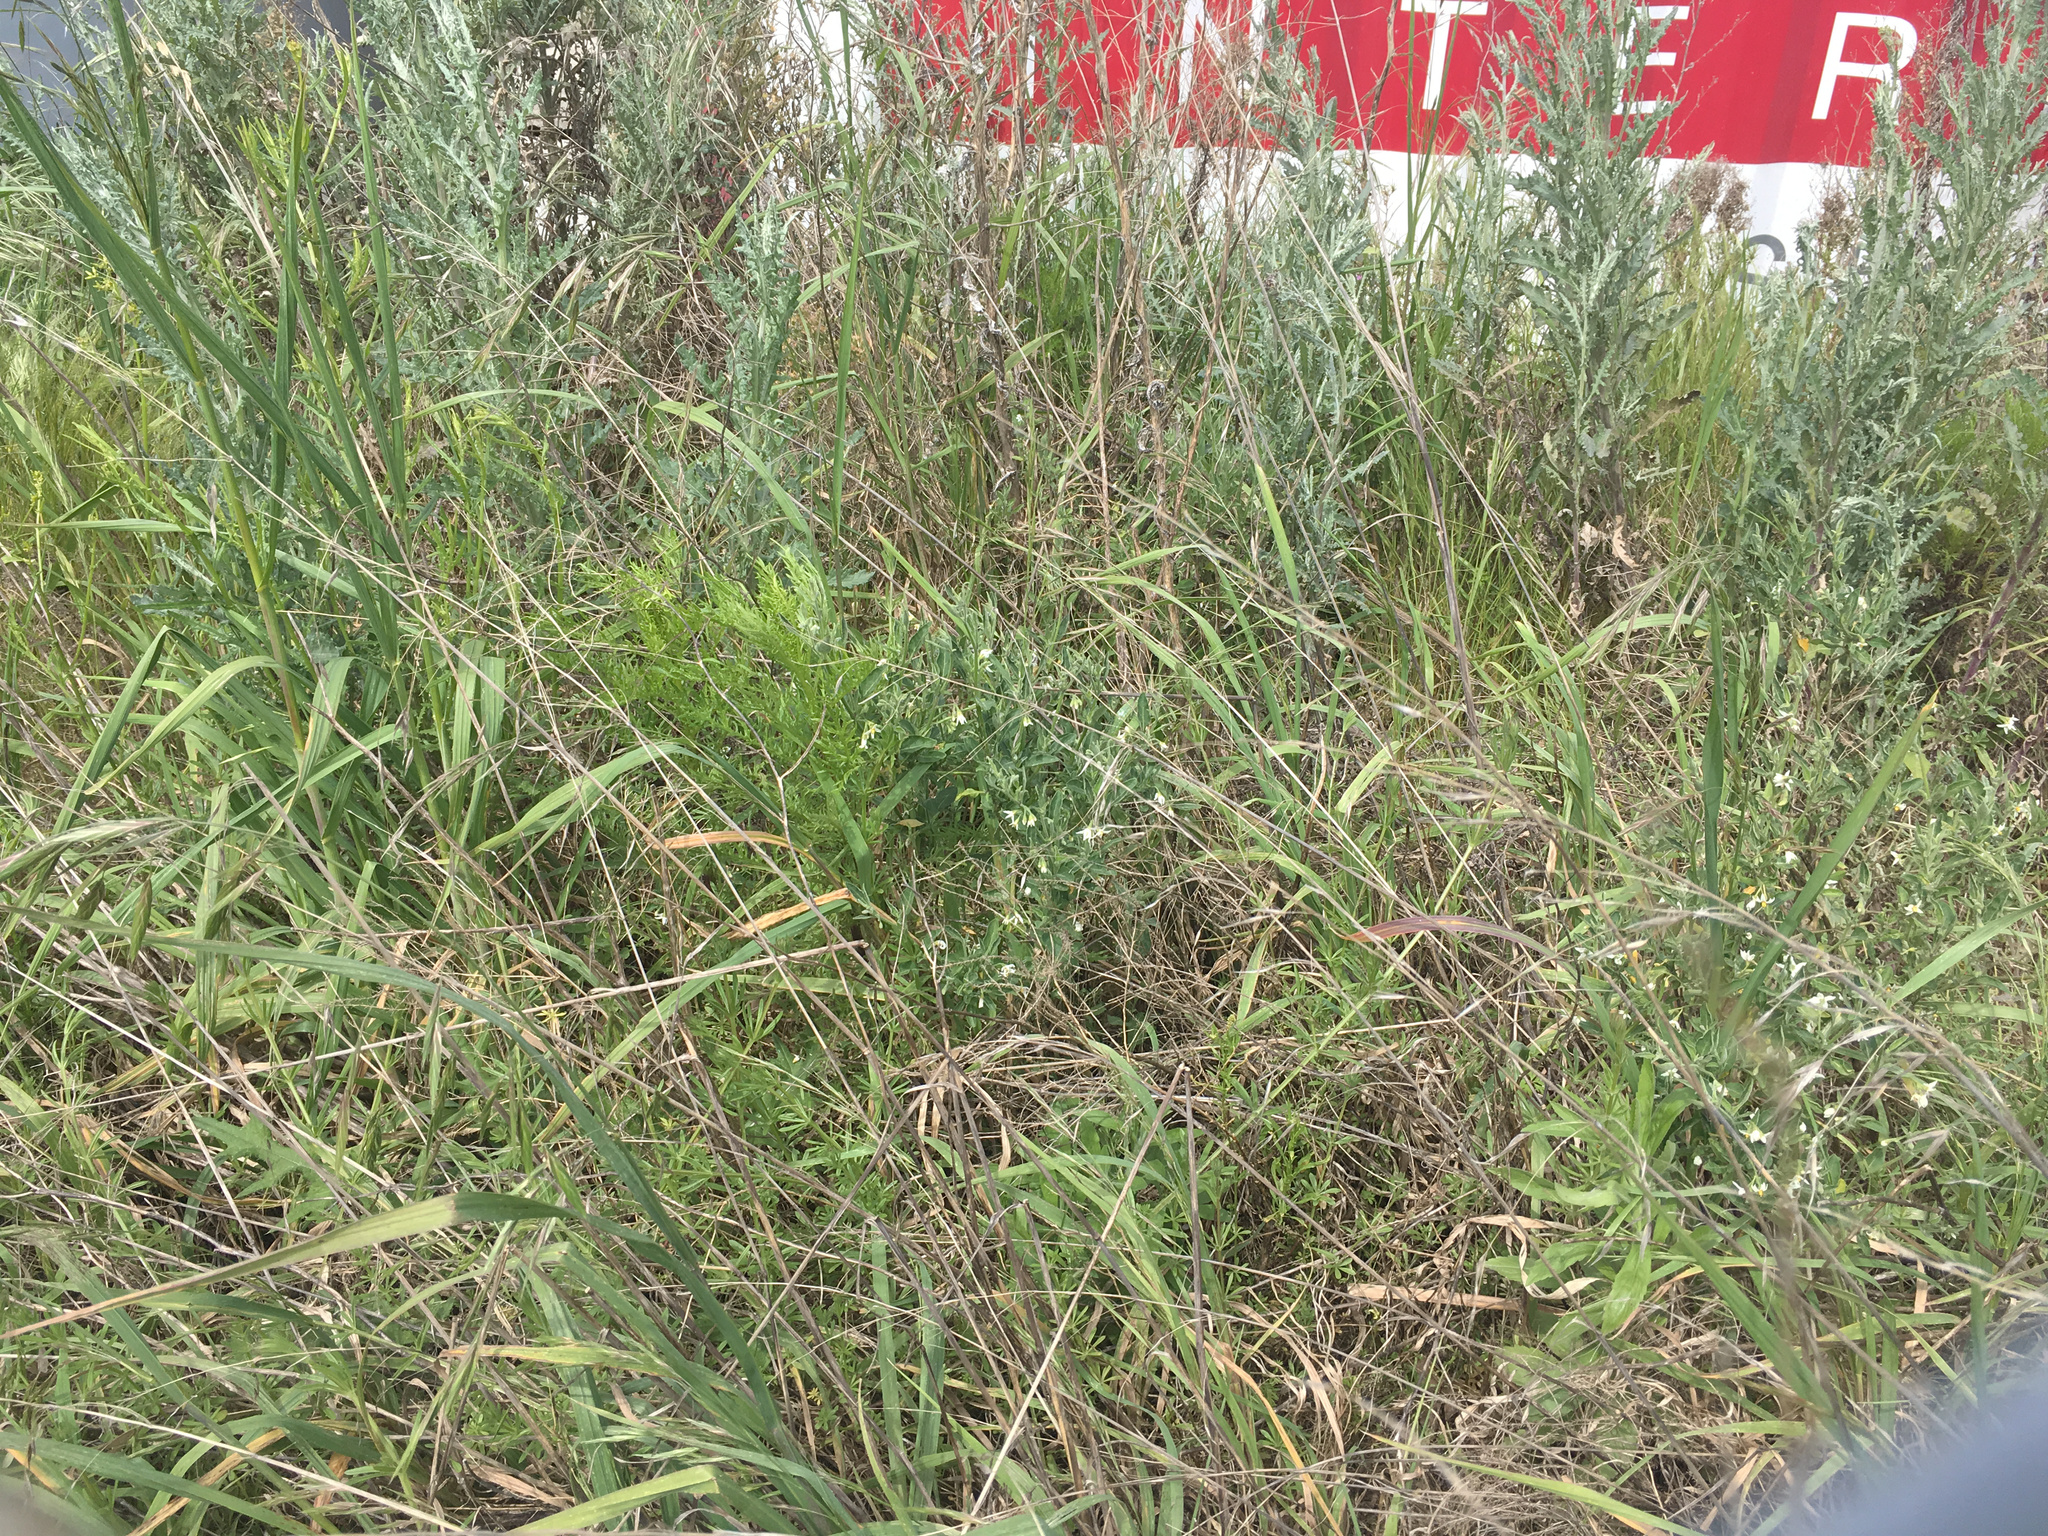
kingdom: Plantae
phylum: Tracheophyta
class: Magnoliopsida
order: Asterales
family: Asteraceae
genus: Senecio
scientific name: Senecio bipinnatisectus
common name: Australian fireweed
